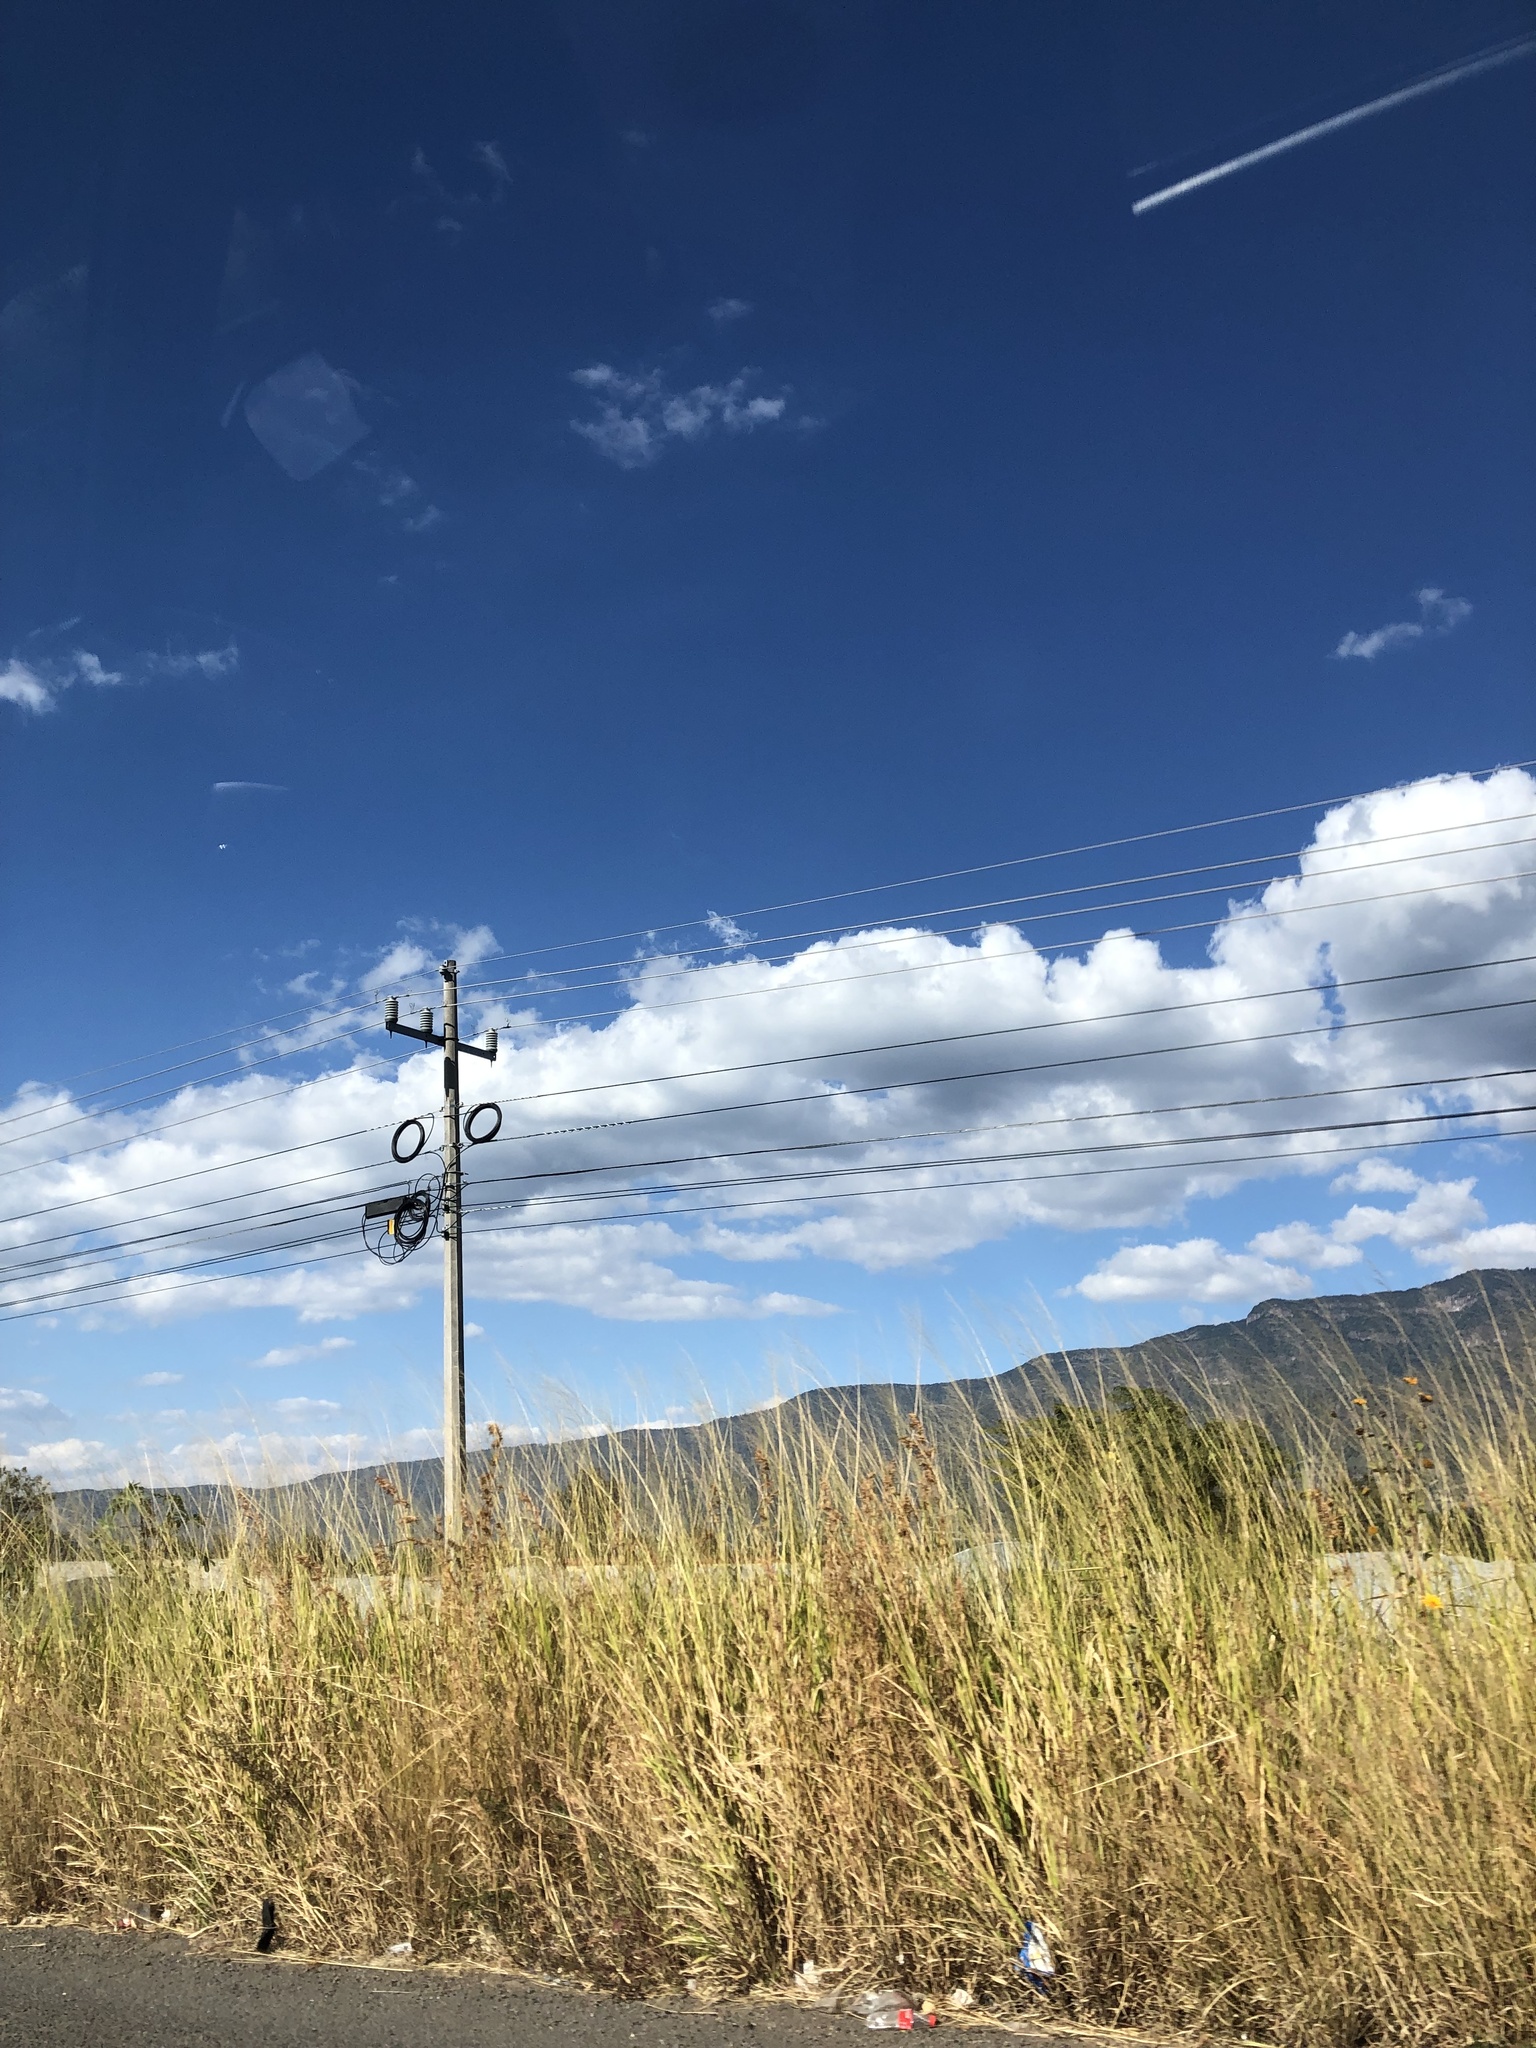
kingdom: Plantae
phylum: Tracheophyta
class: Liliopsida
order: Poales
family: Poaceae
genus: Arundo
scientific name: Arundo donax
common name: Giant reed
